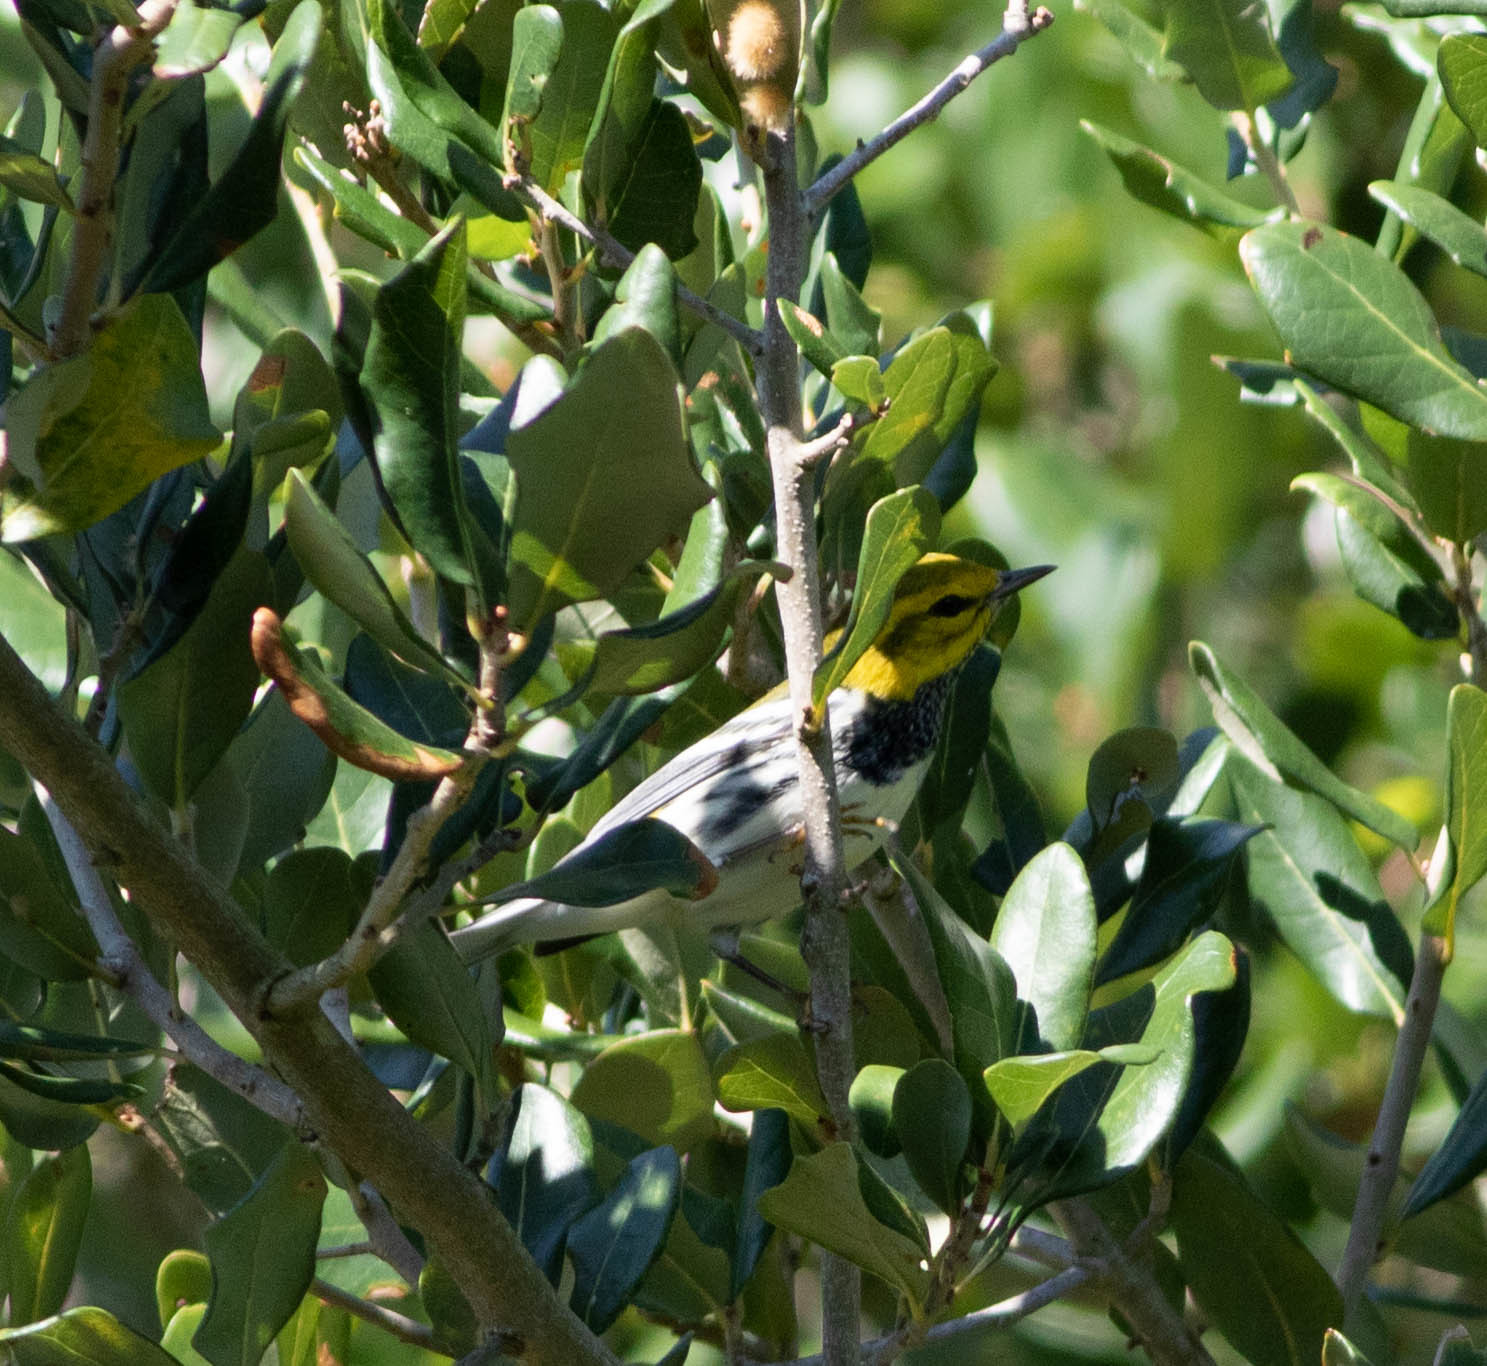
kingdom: Animalia
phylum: Chordata
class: Aves
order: Passeriformes
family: Parulidae
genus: Setophaga
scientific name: Setophaga virens
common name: Black-throated green warbler
